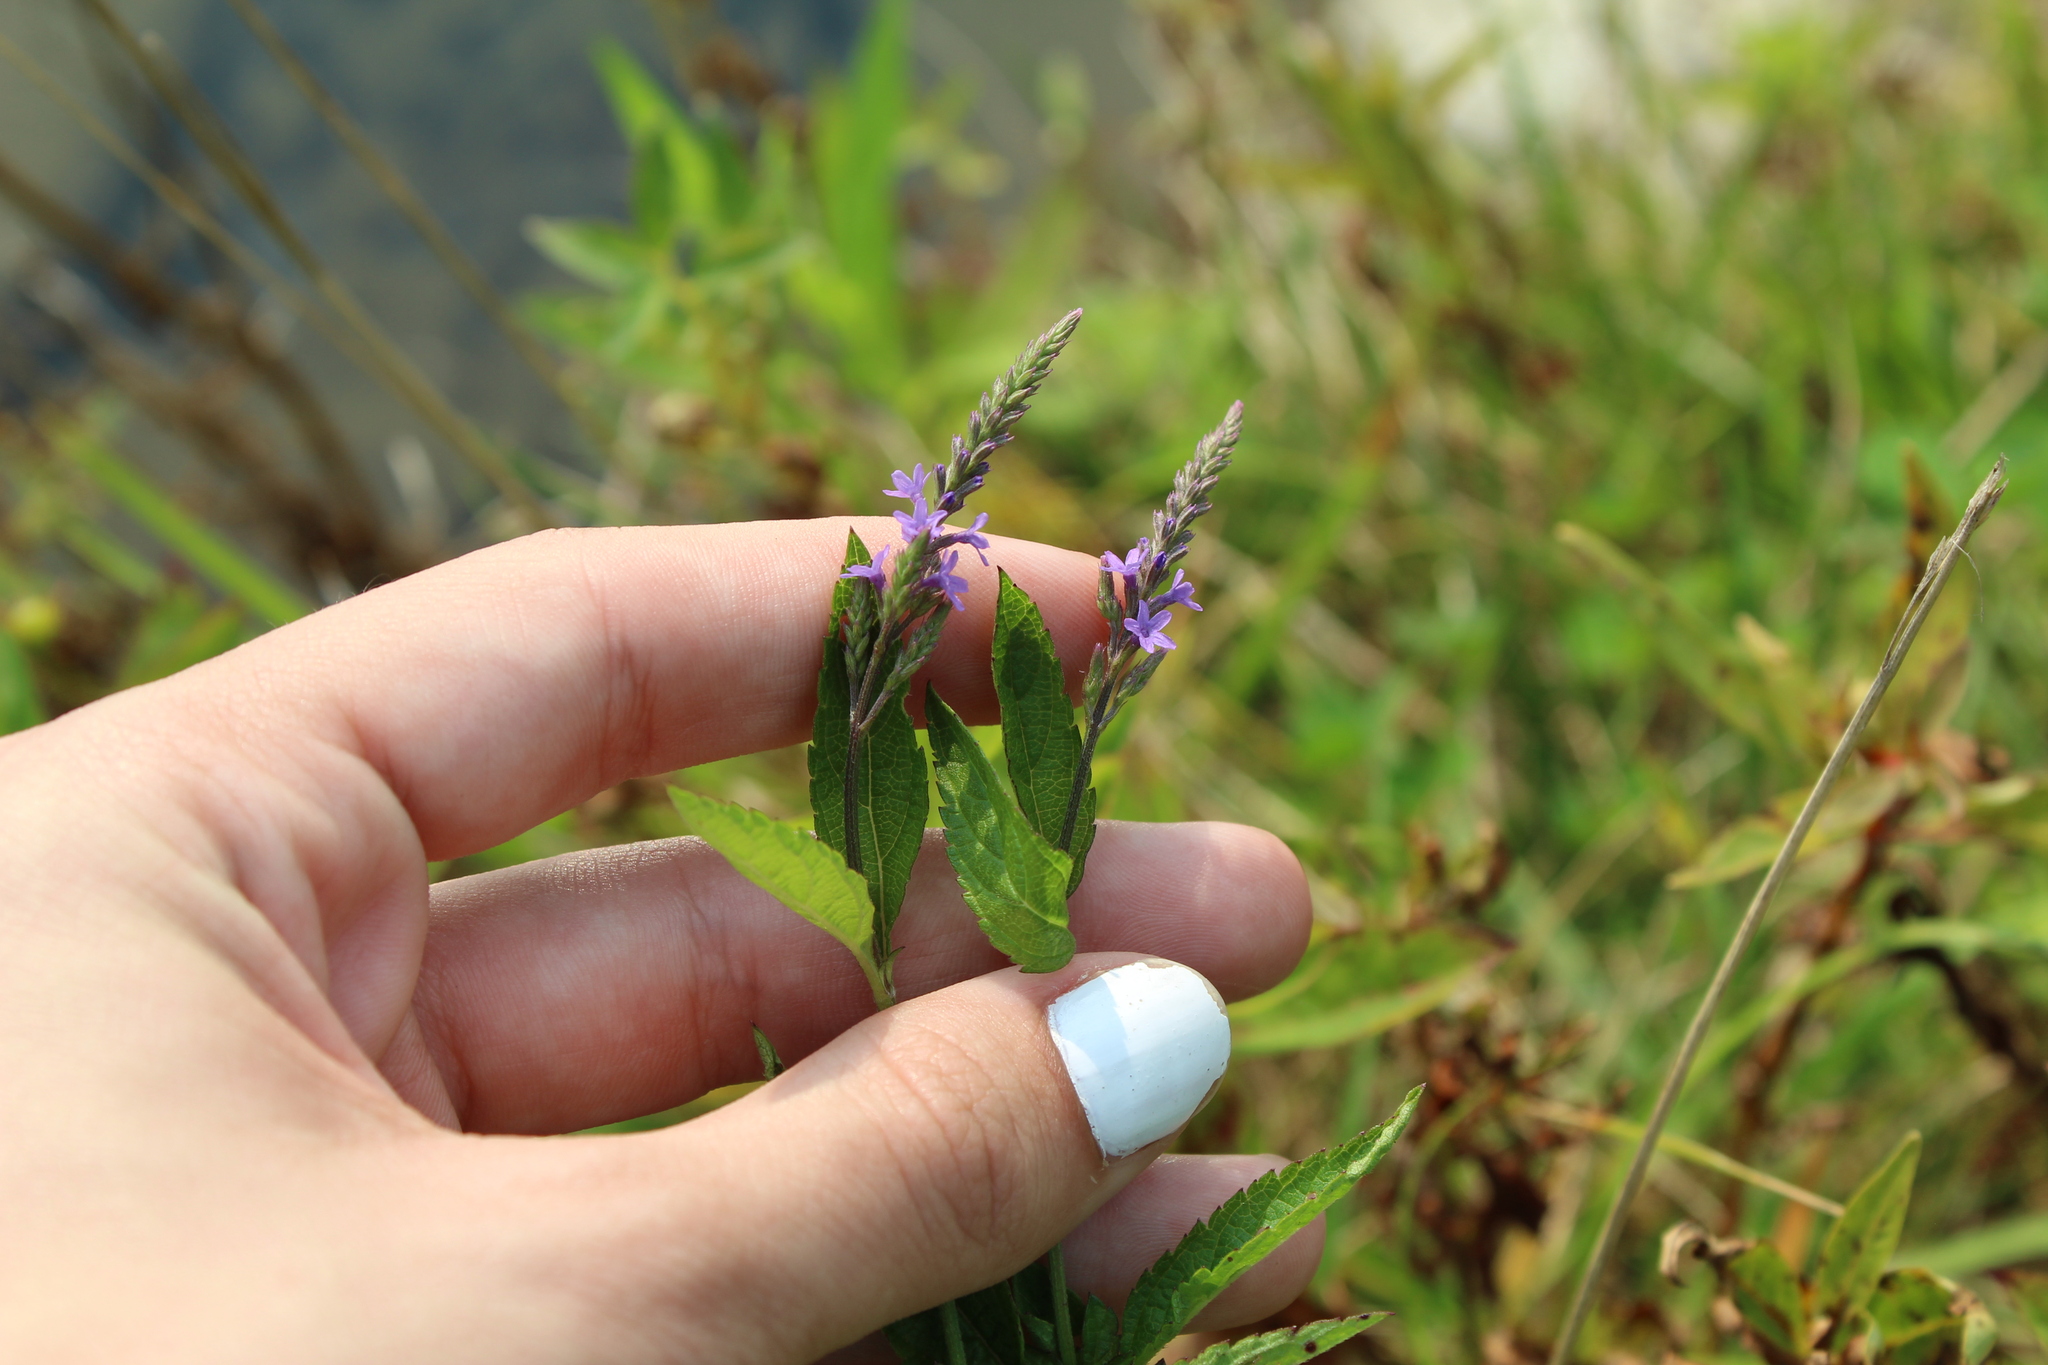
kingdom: Plantae
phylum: Tracheophyta
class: Magnoliopsida
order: Lamiales
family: Verbenaceae
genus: Verbena
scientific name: Verbena hastata
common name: American blue vervain
